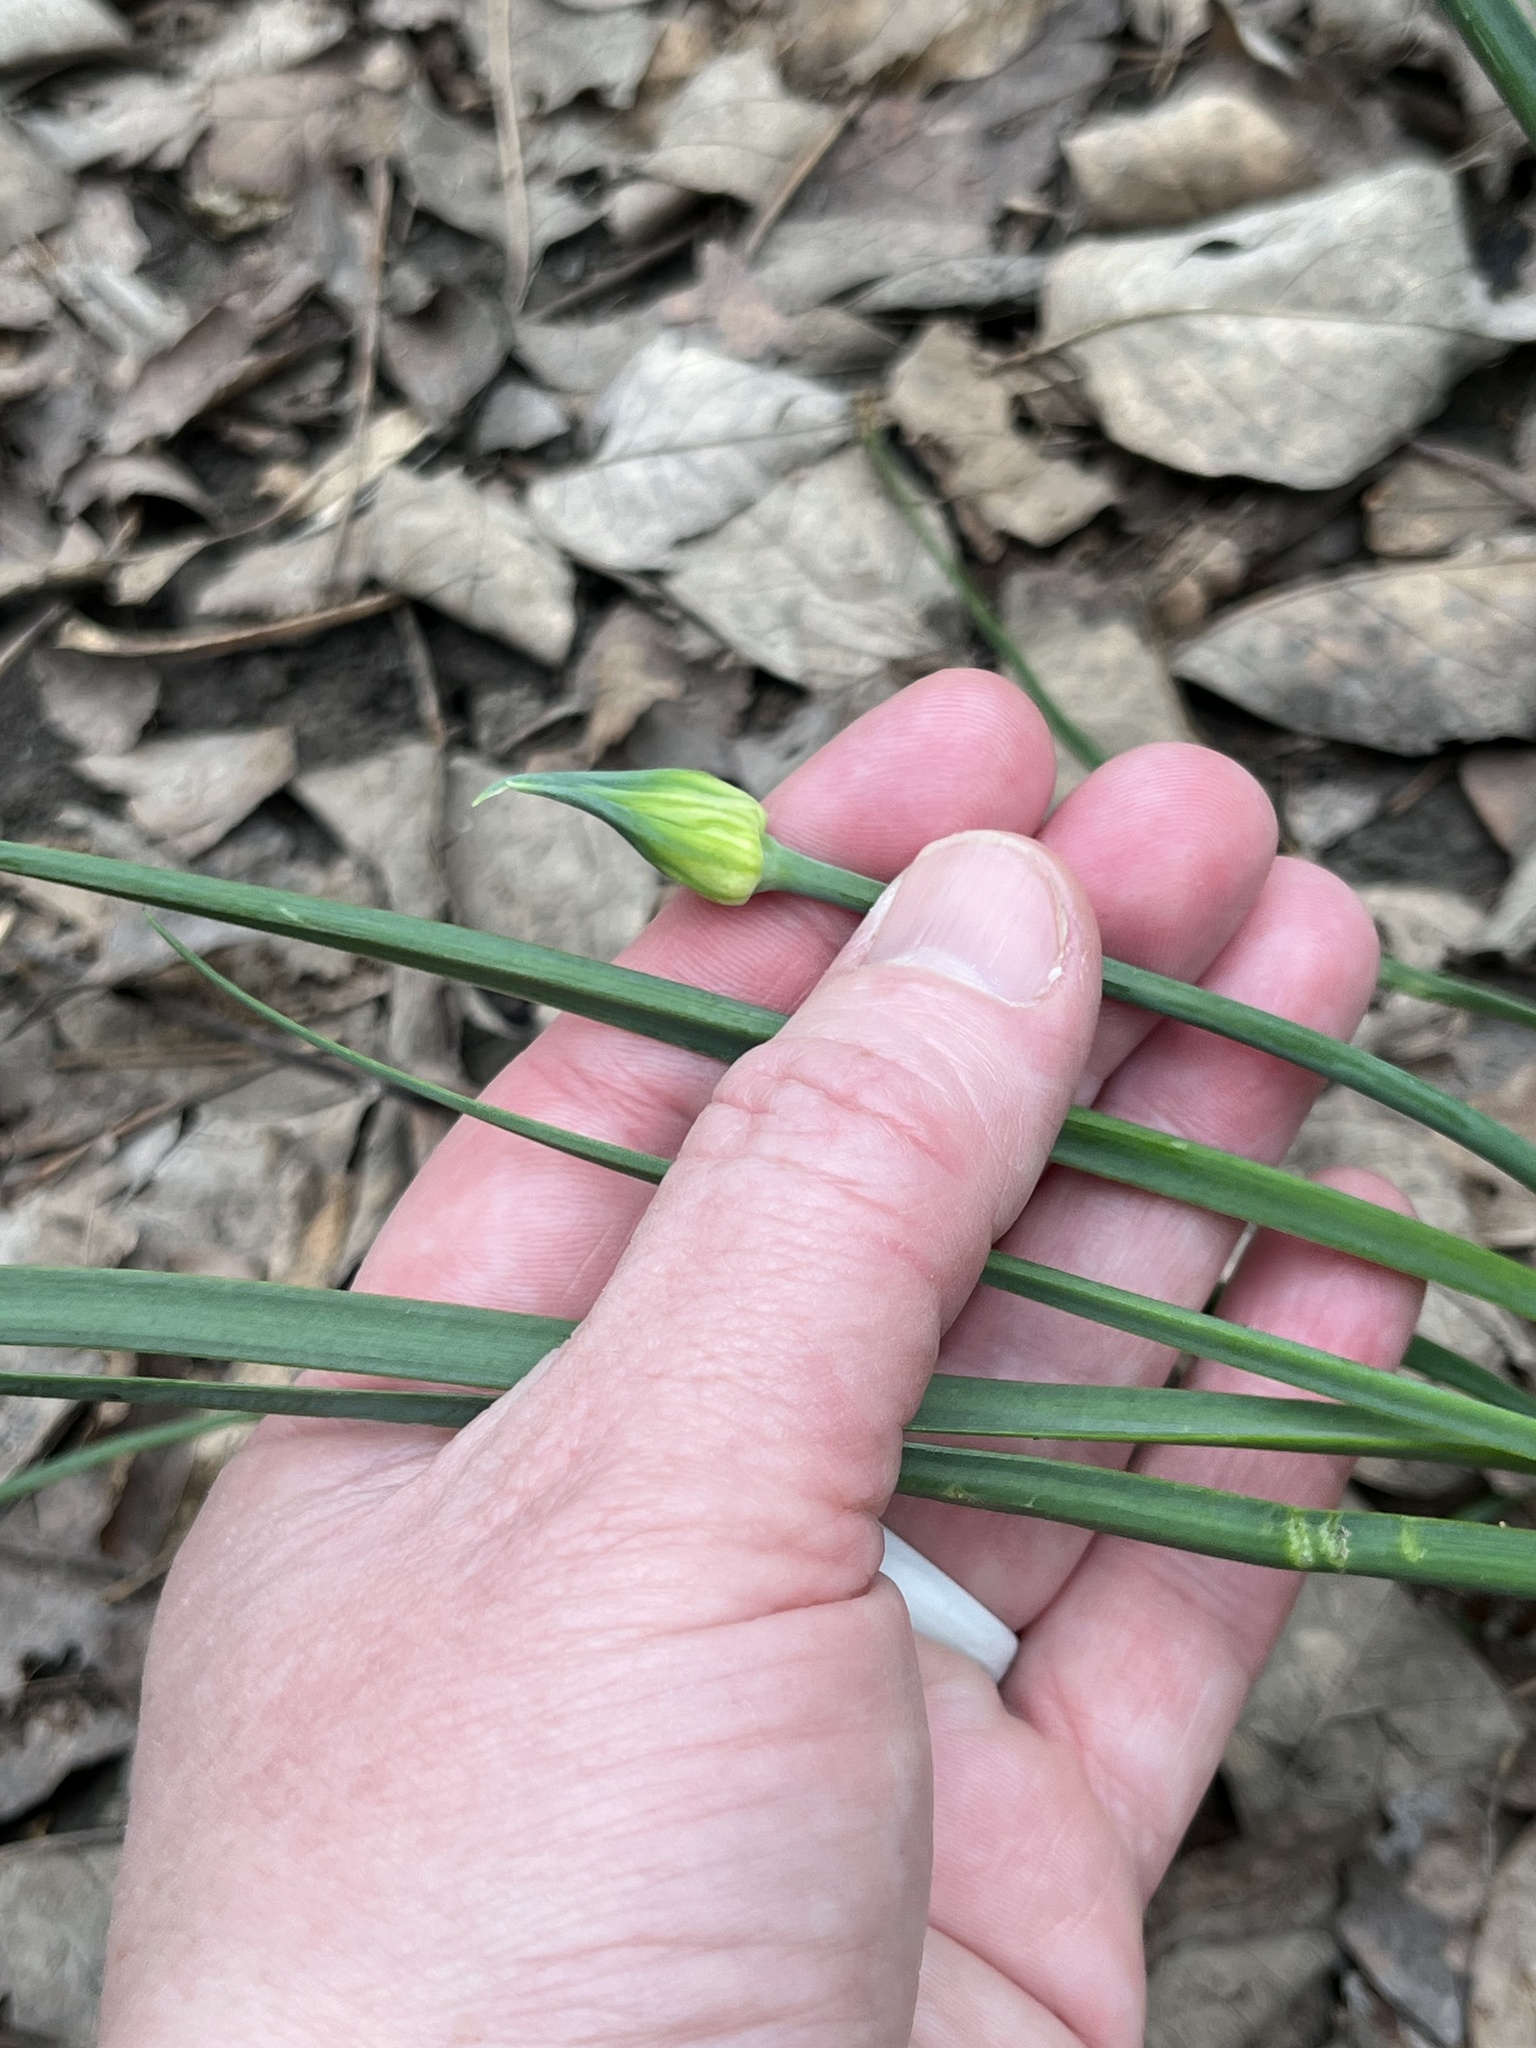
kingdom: Plantae
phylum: Tracheophyta
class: Liliopsida
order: Asparagales
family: Amaryllidaceae
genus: Allium
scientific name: Allium canadense
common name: Meadow garlic
